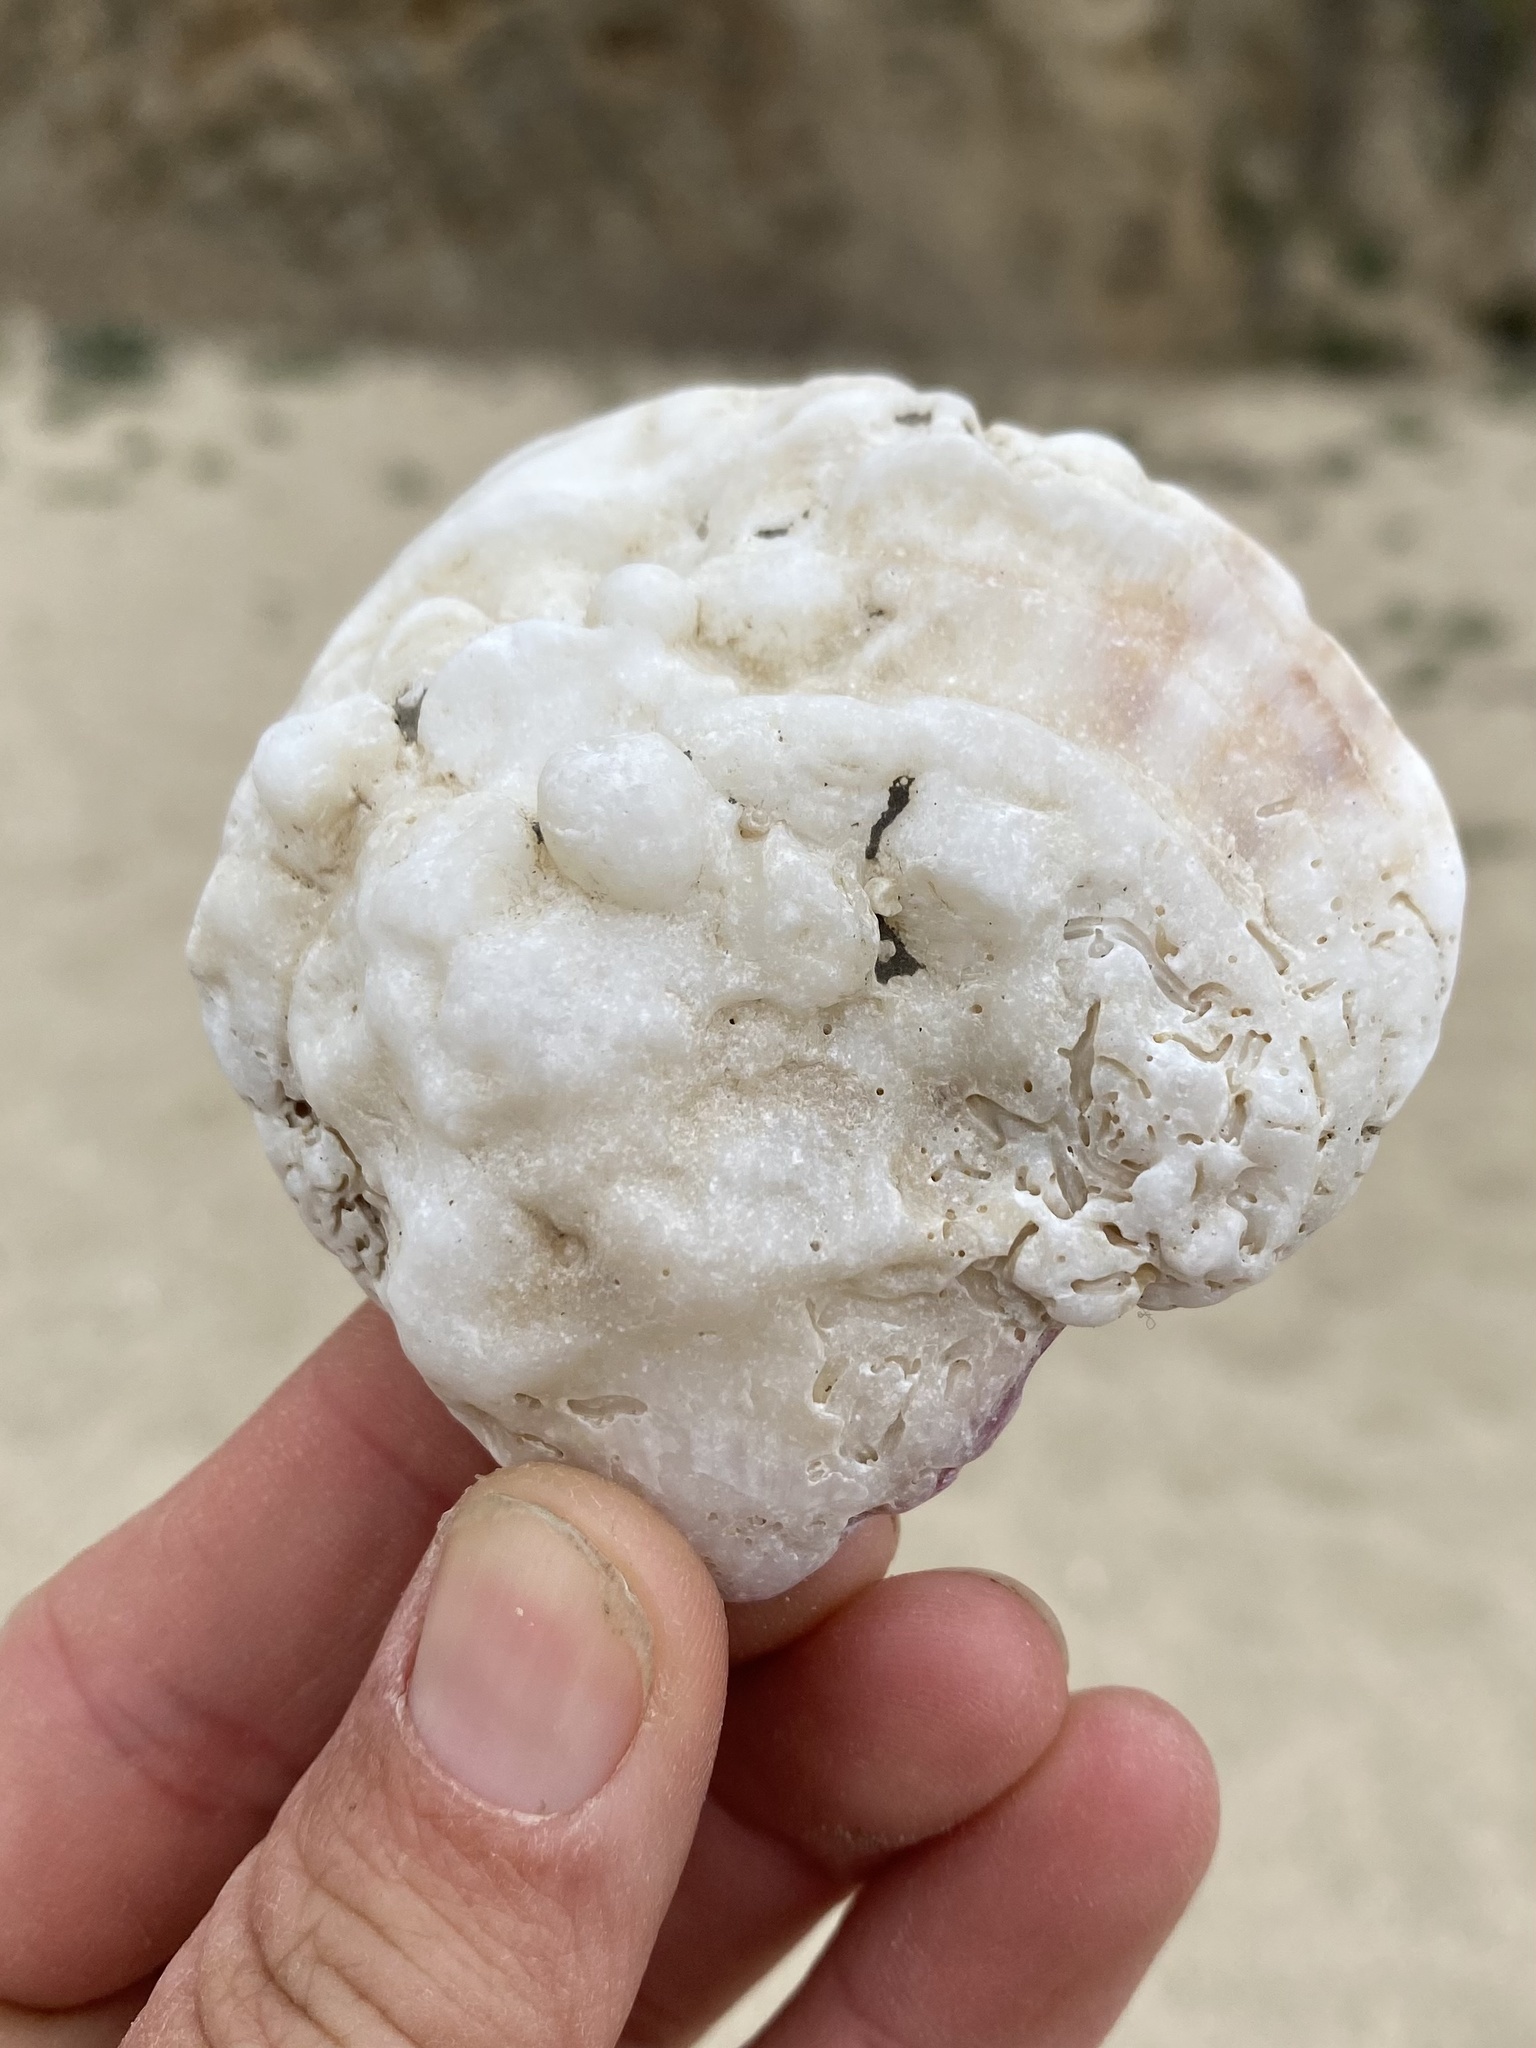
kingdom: Animalia
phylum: Mollusca
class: Bivalvia
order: Pectinida
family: Pectinidae
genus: Crassadoma
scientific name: Crassadoma gigantea
